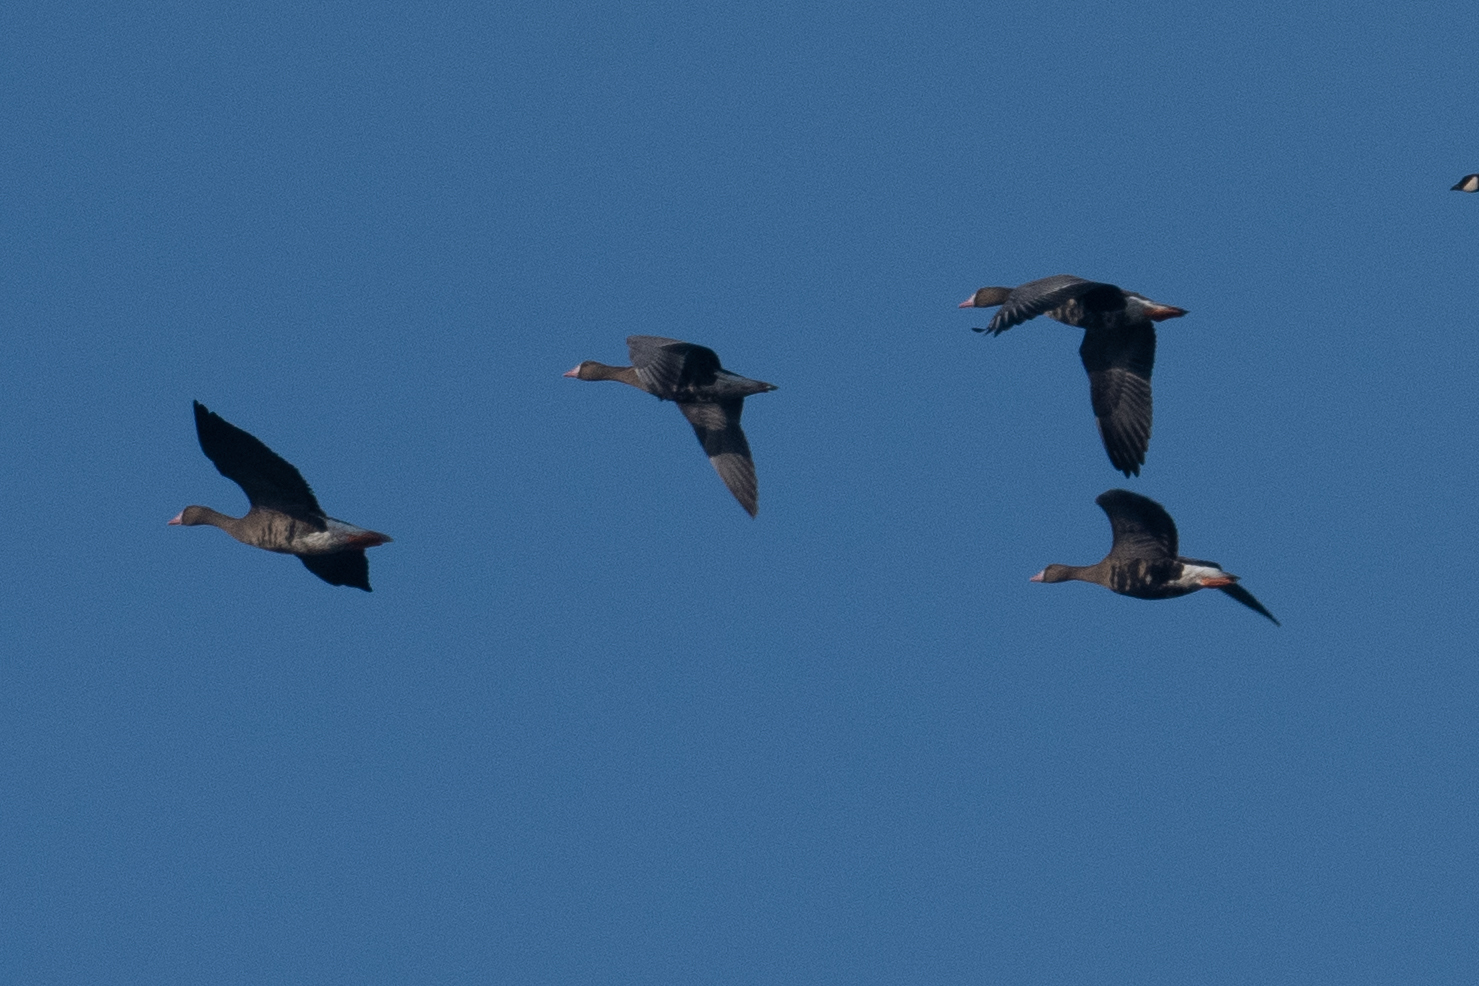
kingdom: Animalia
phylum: Chordata
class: Aves
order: Anseriformes
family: Anatidae
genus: Anser
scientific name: Anser albifrons
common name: Greater white-fronted goose
